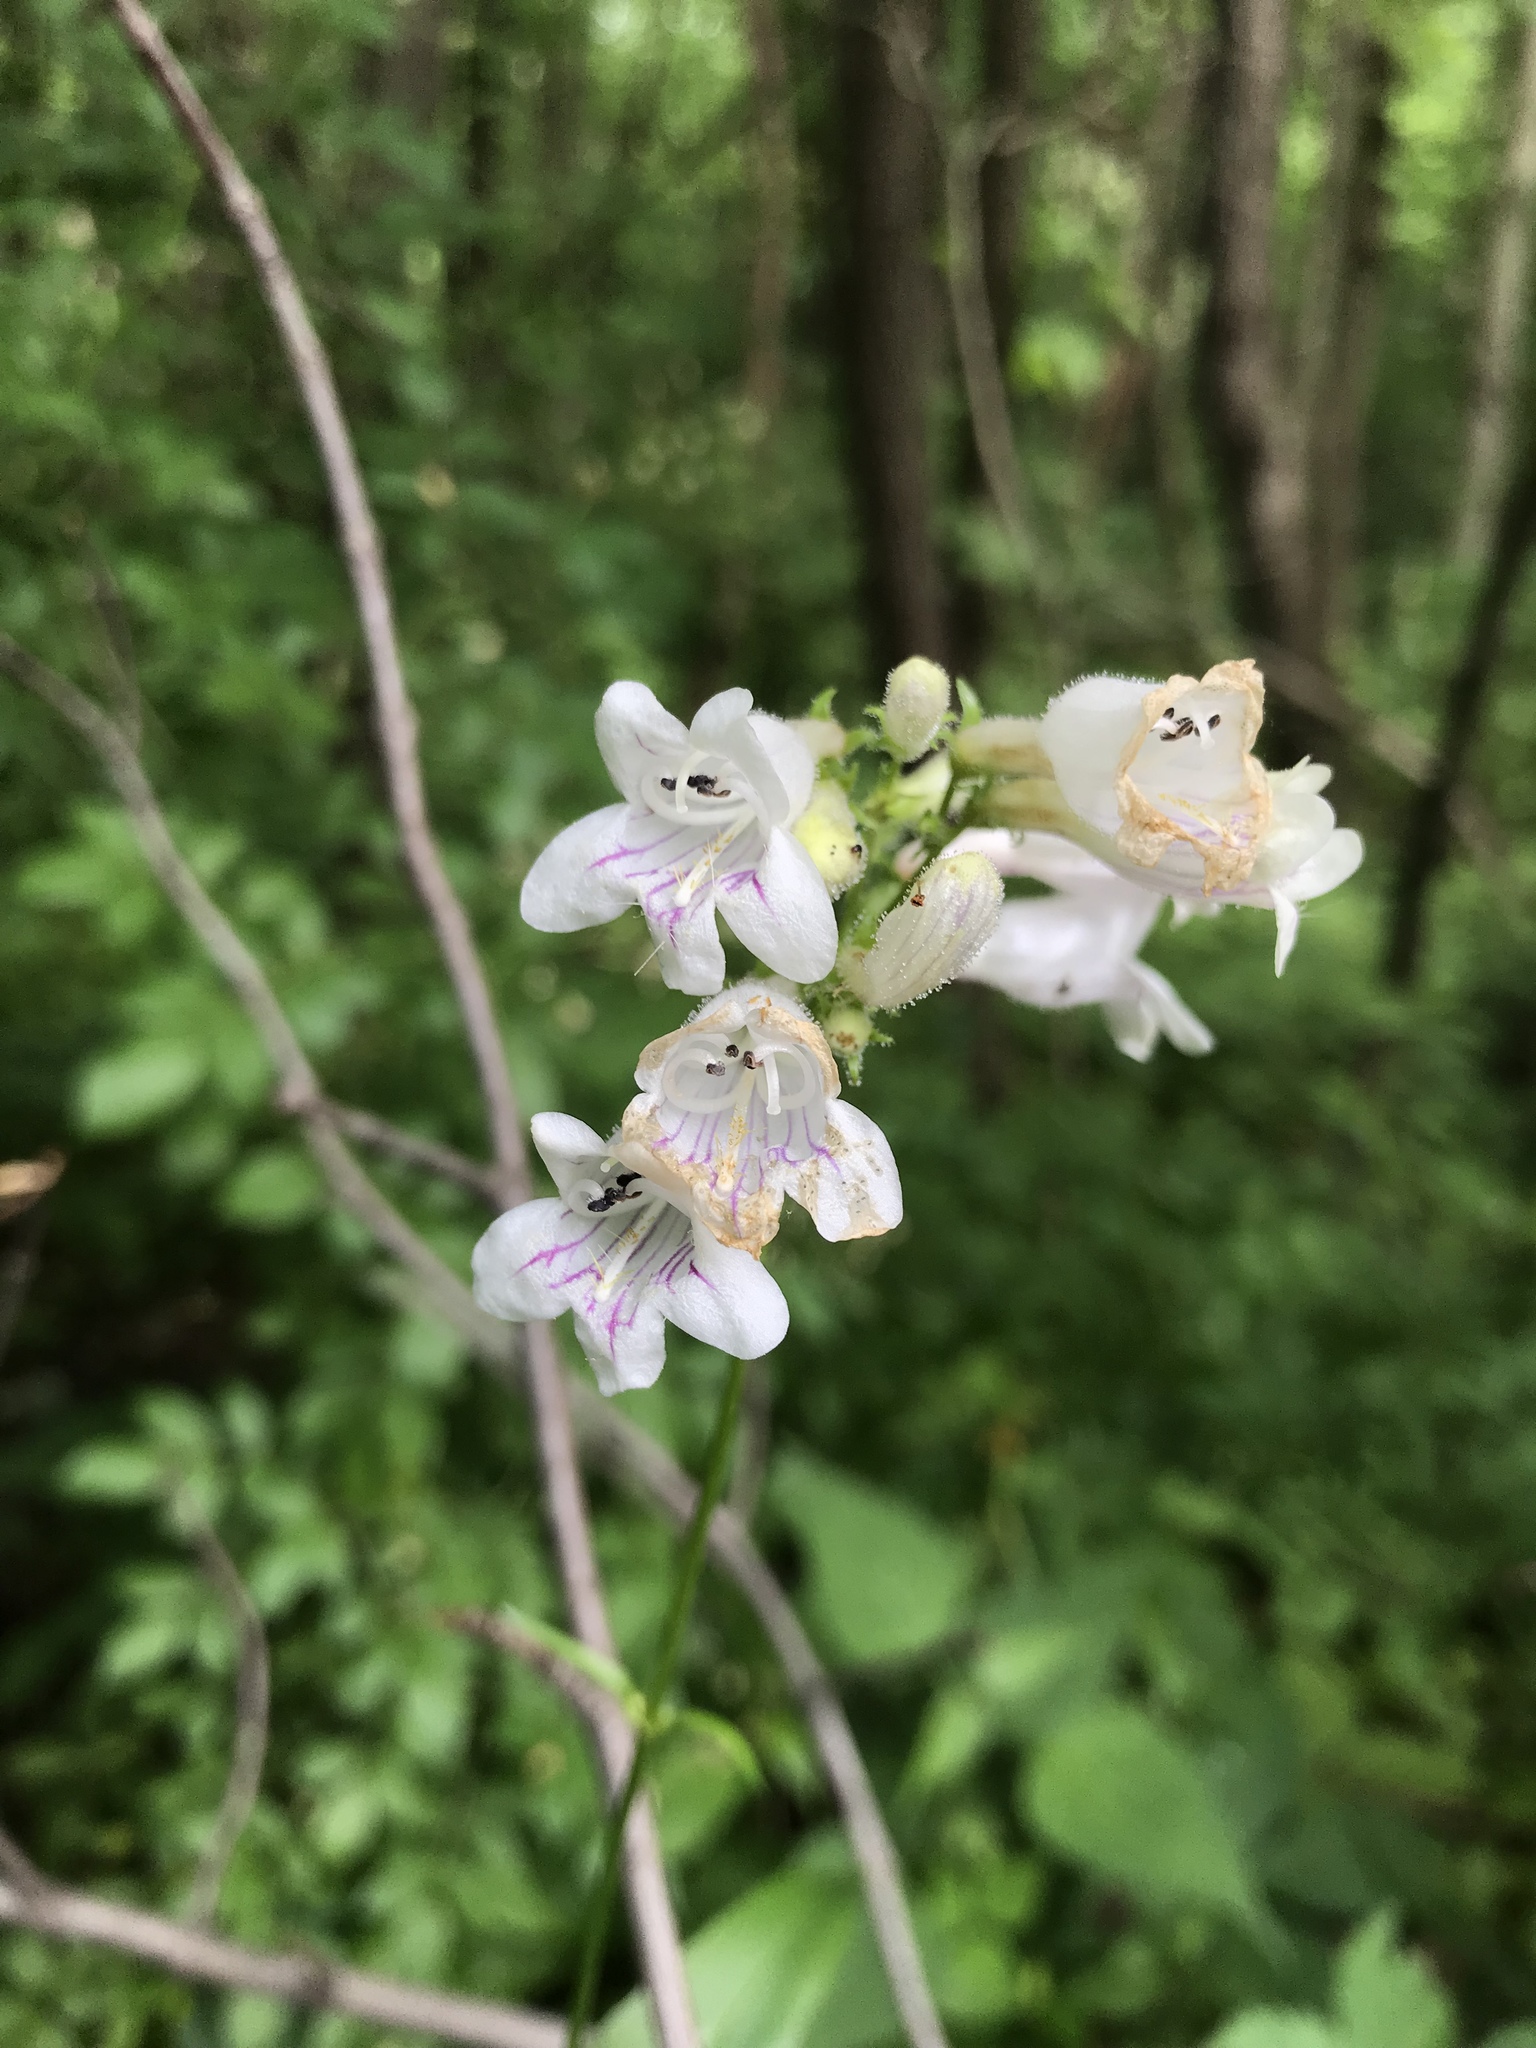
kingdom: Plantae
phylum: Tracheophyta
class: Magnoliopsida
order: Lamiales
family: Plantaginaceae
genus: Penstemon
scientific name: Penstemon digitalis
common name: Foxglove beardtongue
